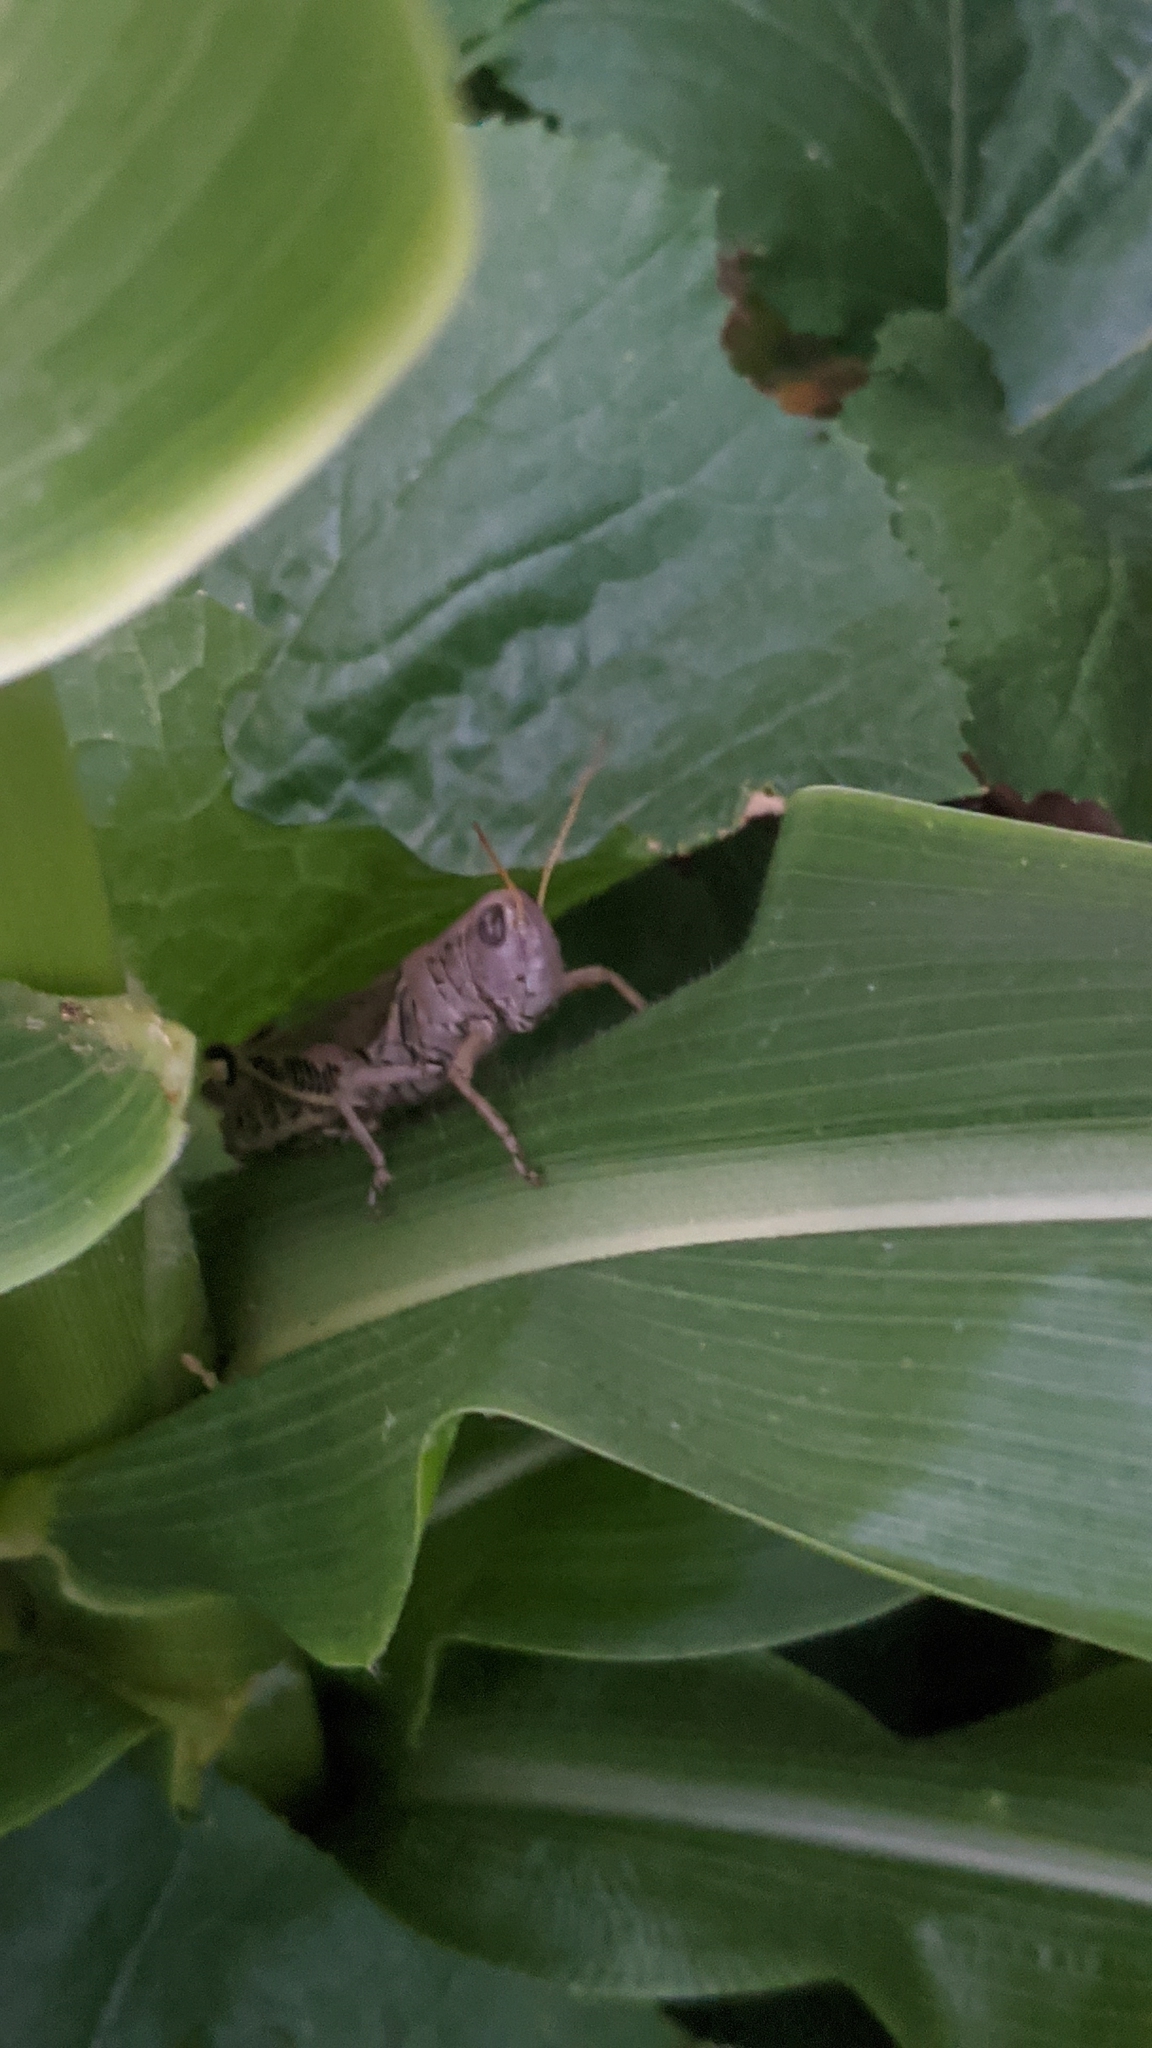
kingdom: Animalia
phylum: Arthropoda
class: Insecta
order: Orthoptera
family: Acrididae
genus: Melanoplus
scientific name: Melanoplus differentialis
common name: Differential grasshopper
